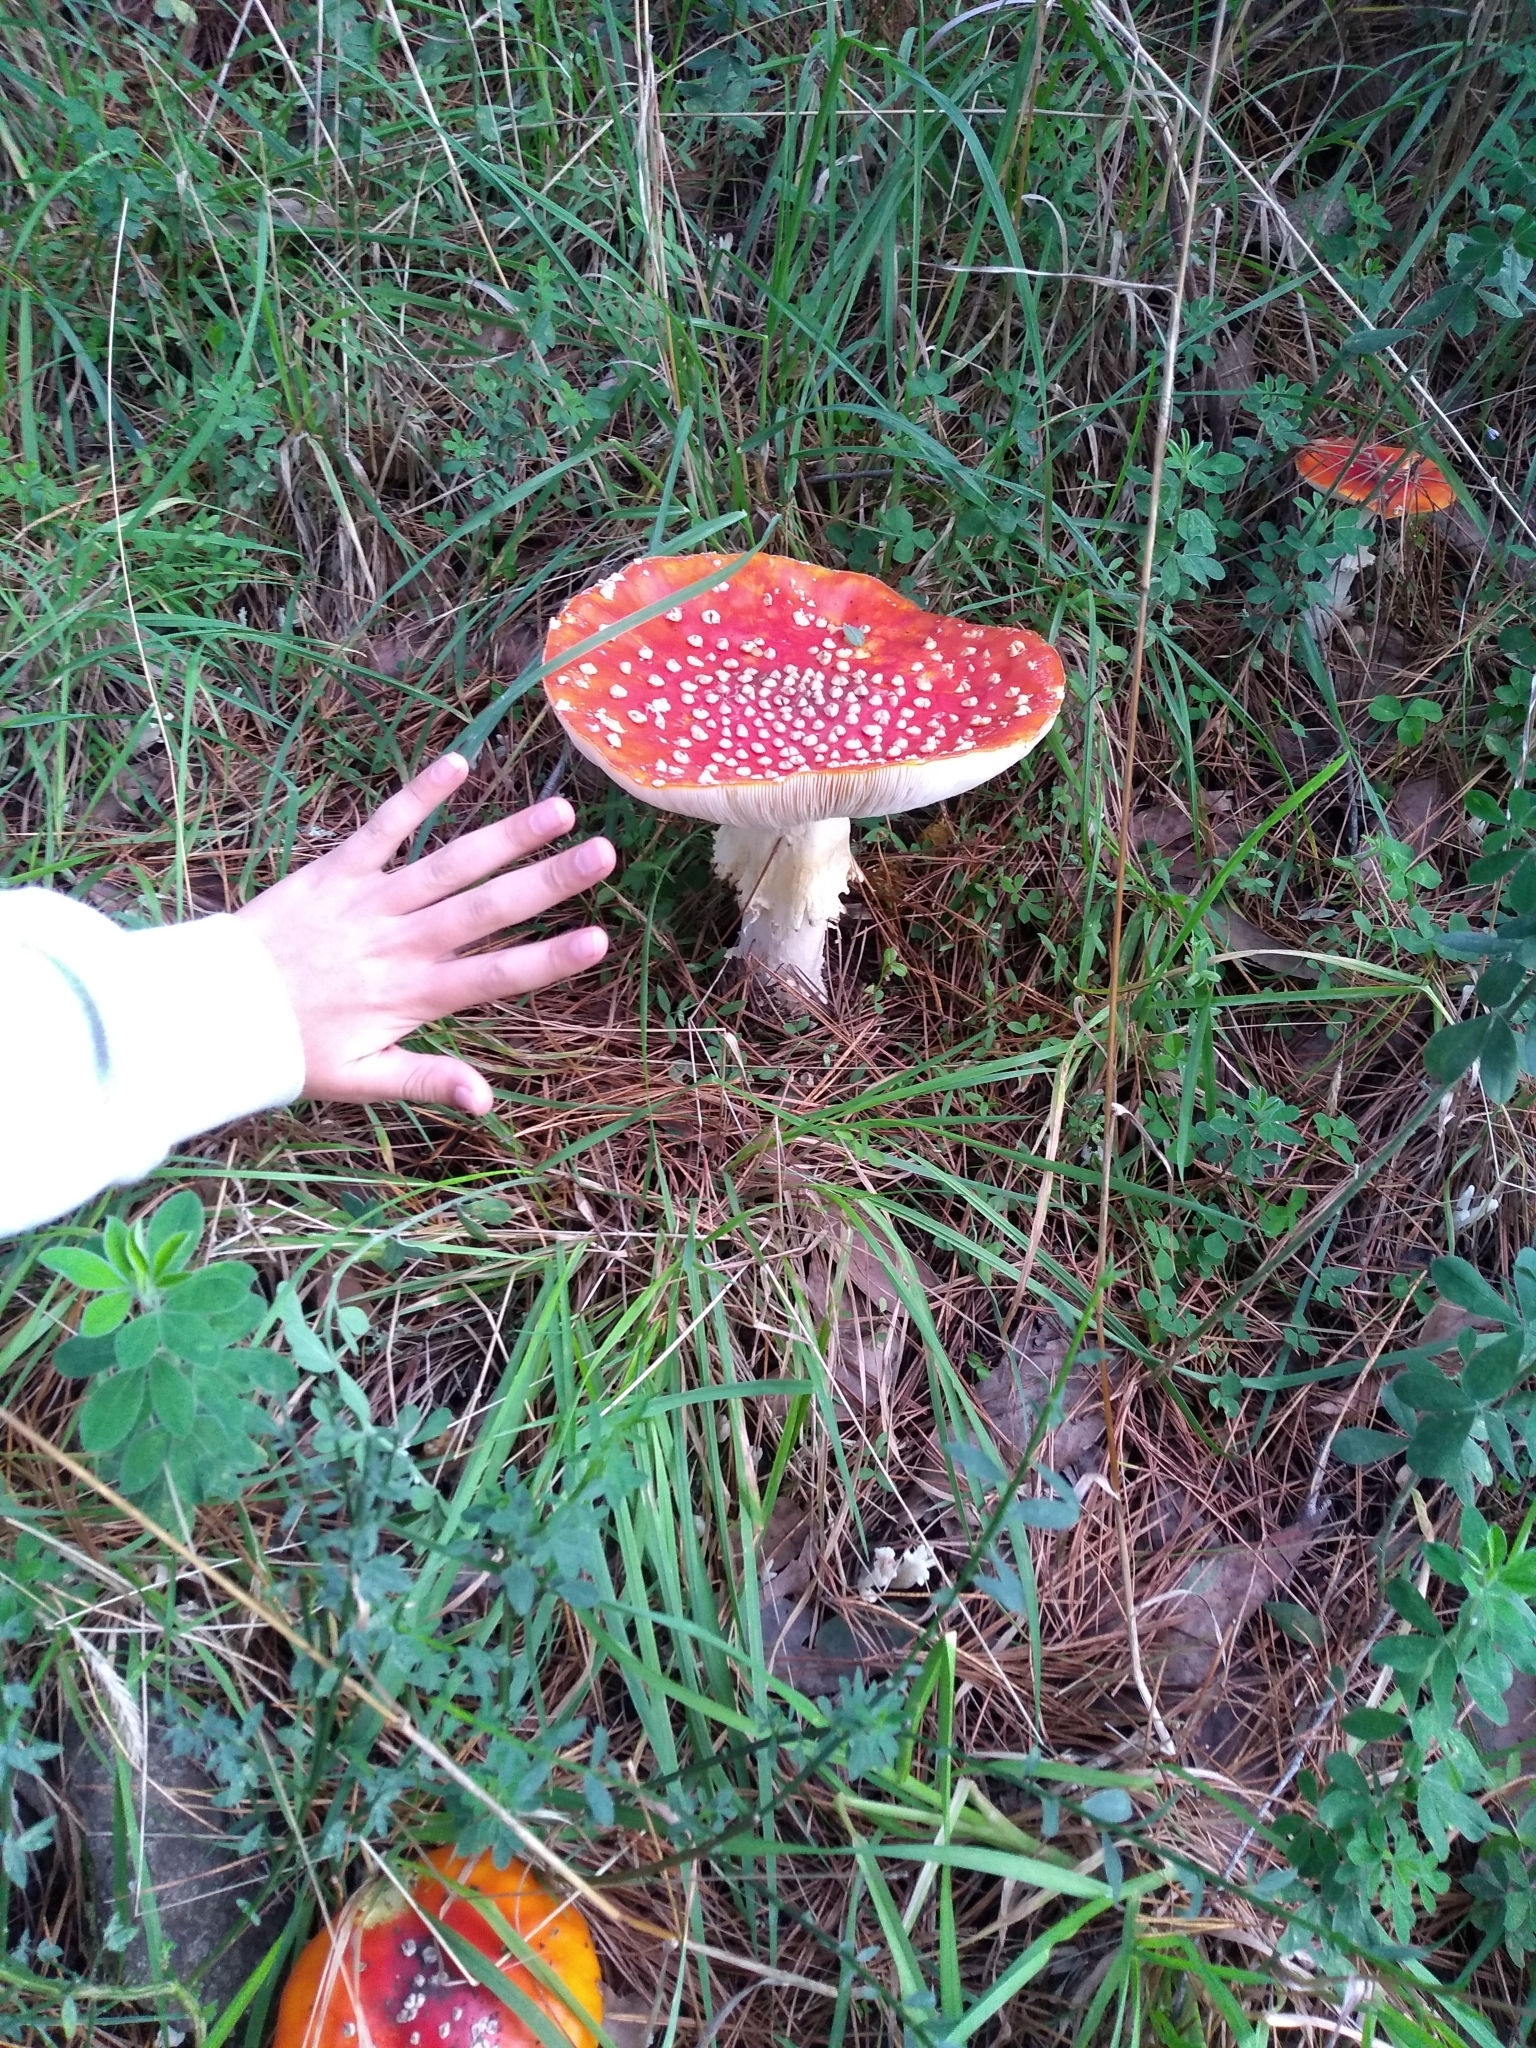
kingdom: Fungi
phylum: Basidiomycota
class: Agaricomycetes
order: Agaricales
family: Amanitaceae
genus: Amanita
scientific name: Amanita muscaria
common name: Fly agaric
